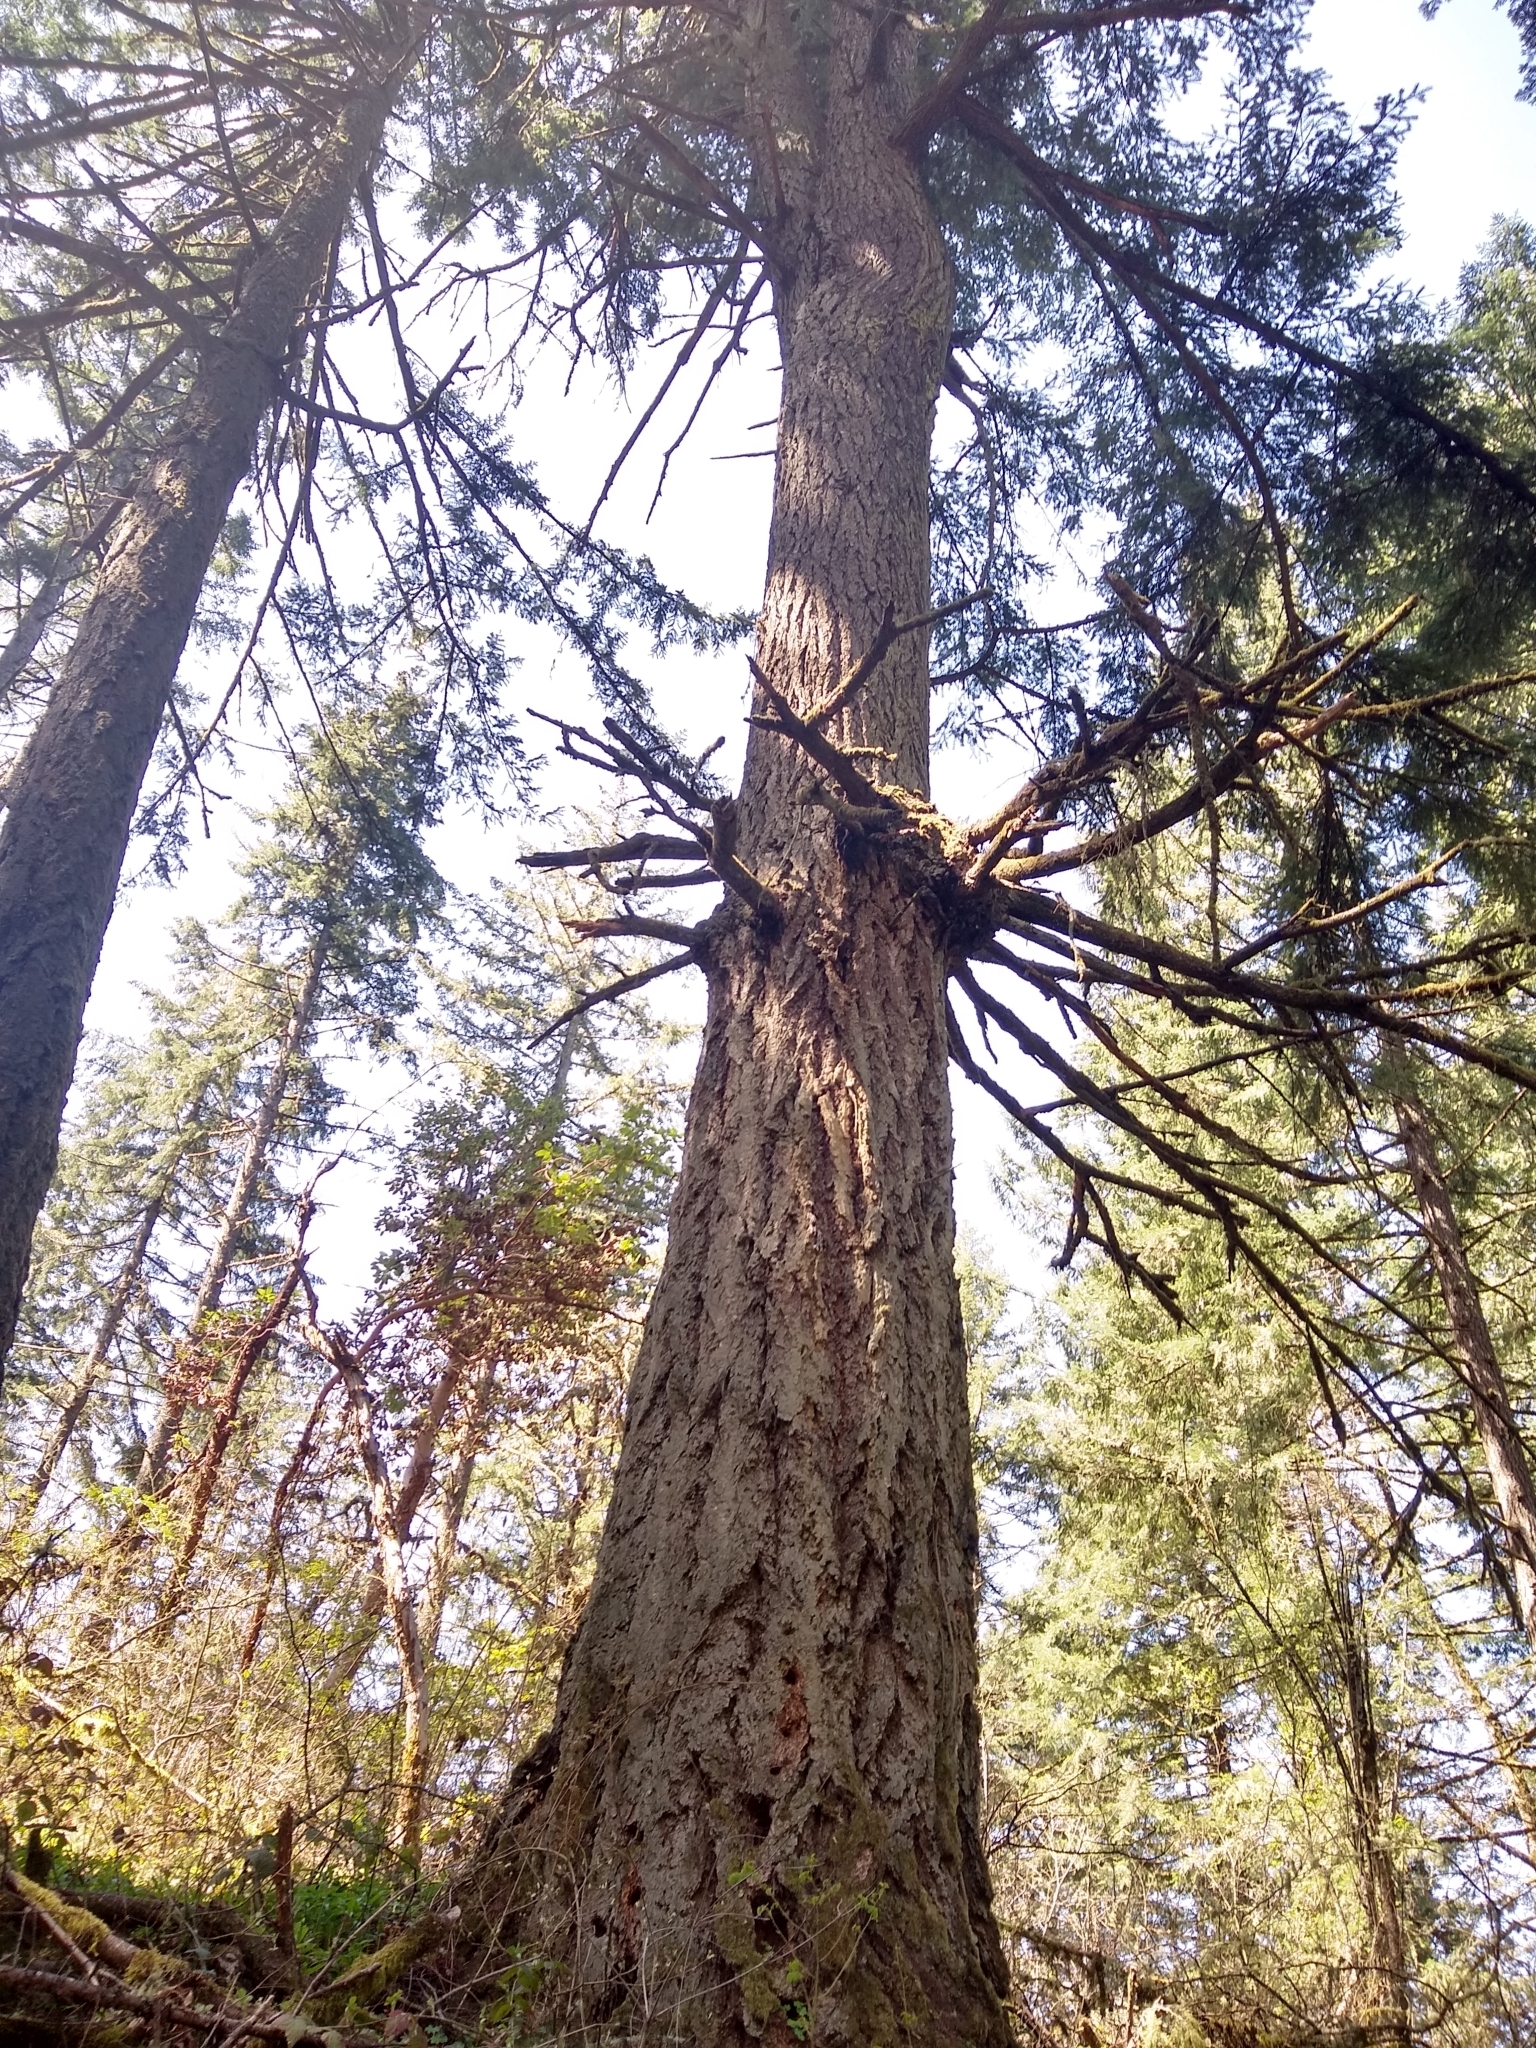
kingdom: Plantae
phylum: Tracheophyta
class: Pinopsida
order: Pinales
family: Pinaceae
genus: Pseudotsuga
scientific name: Pseudotsuga menziesii
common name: Douglas fir
